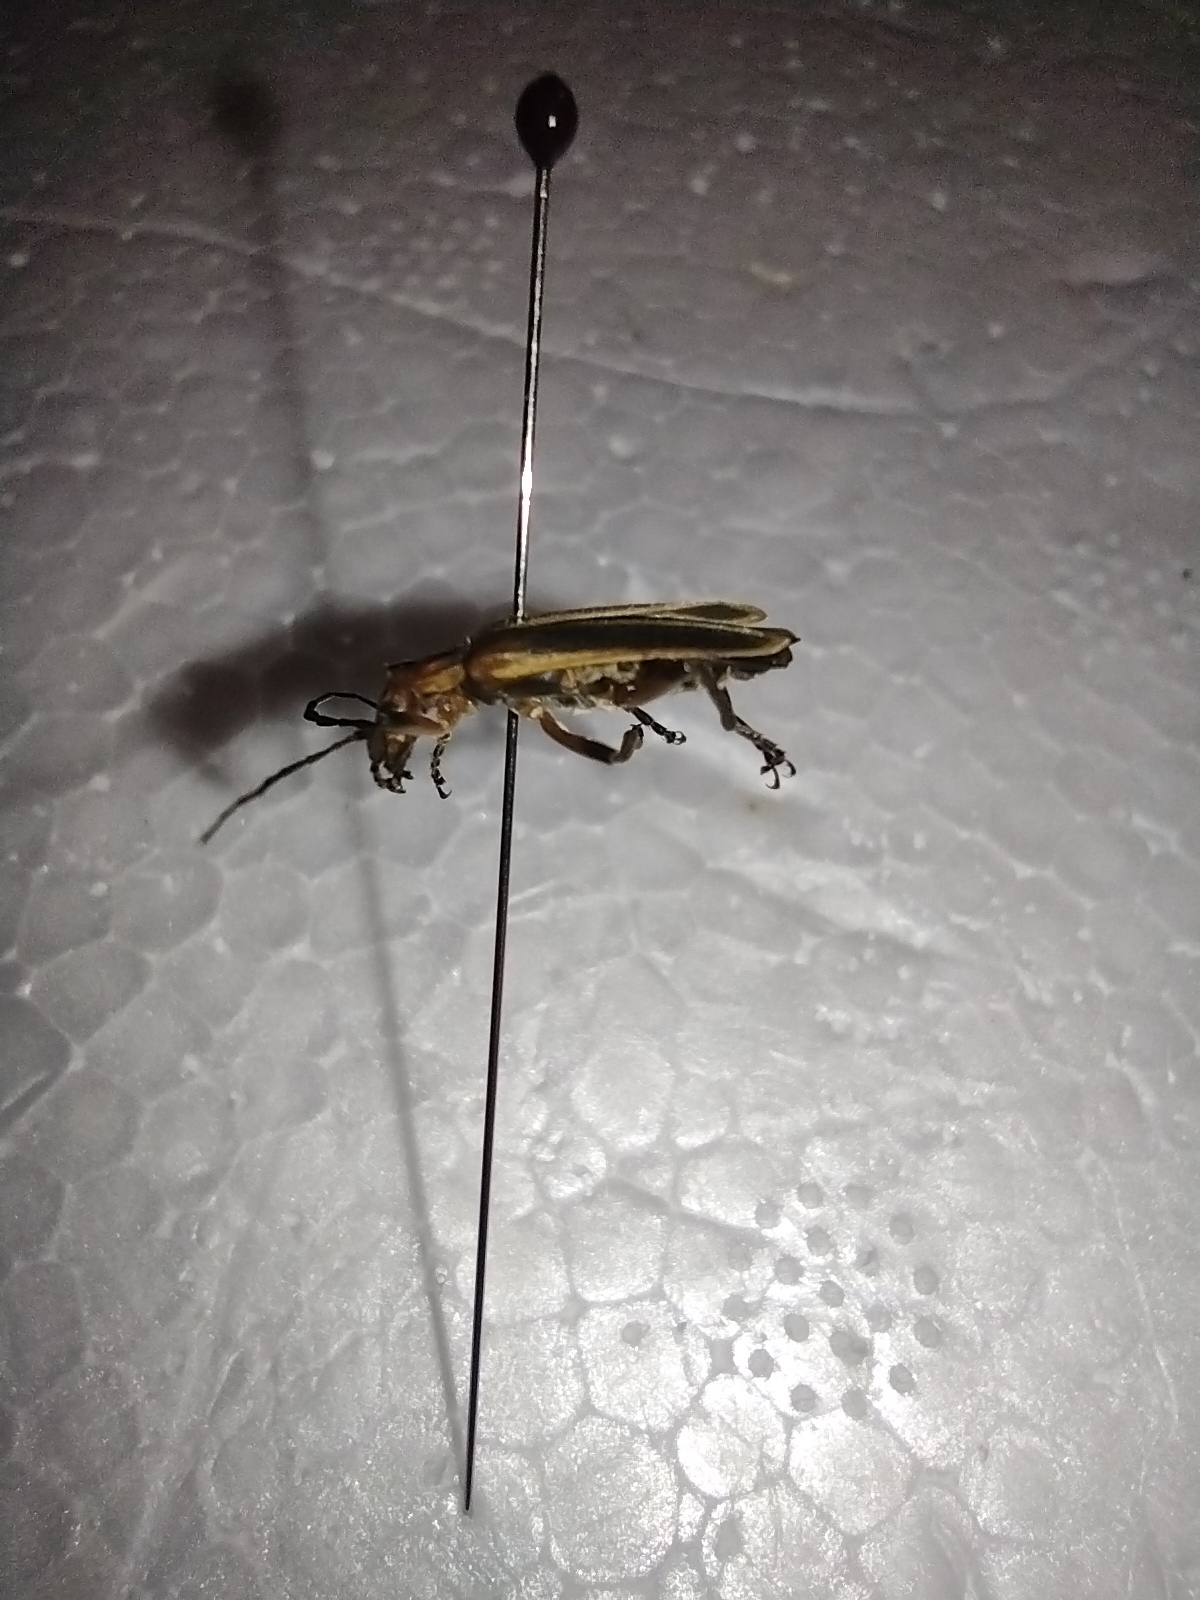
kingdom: Animalia
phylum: Arthropoda
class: Insecta
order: Coleoptera
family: Cantharidae
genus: Chauliognathus
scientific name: Chauliognathus marginatus
